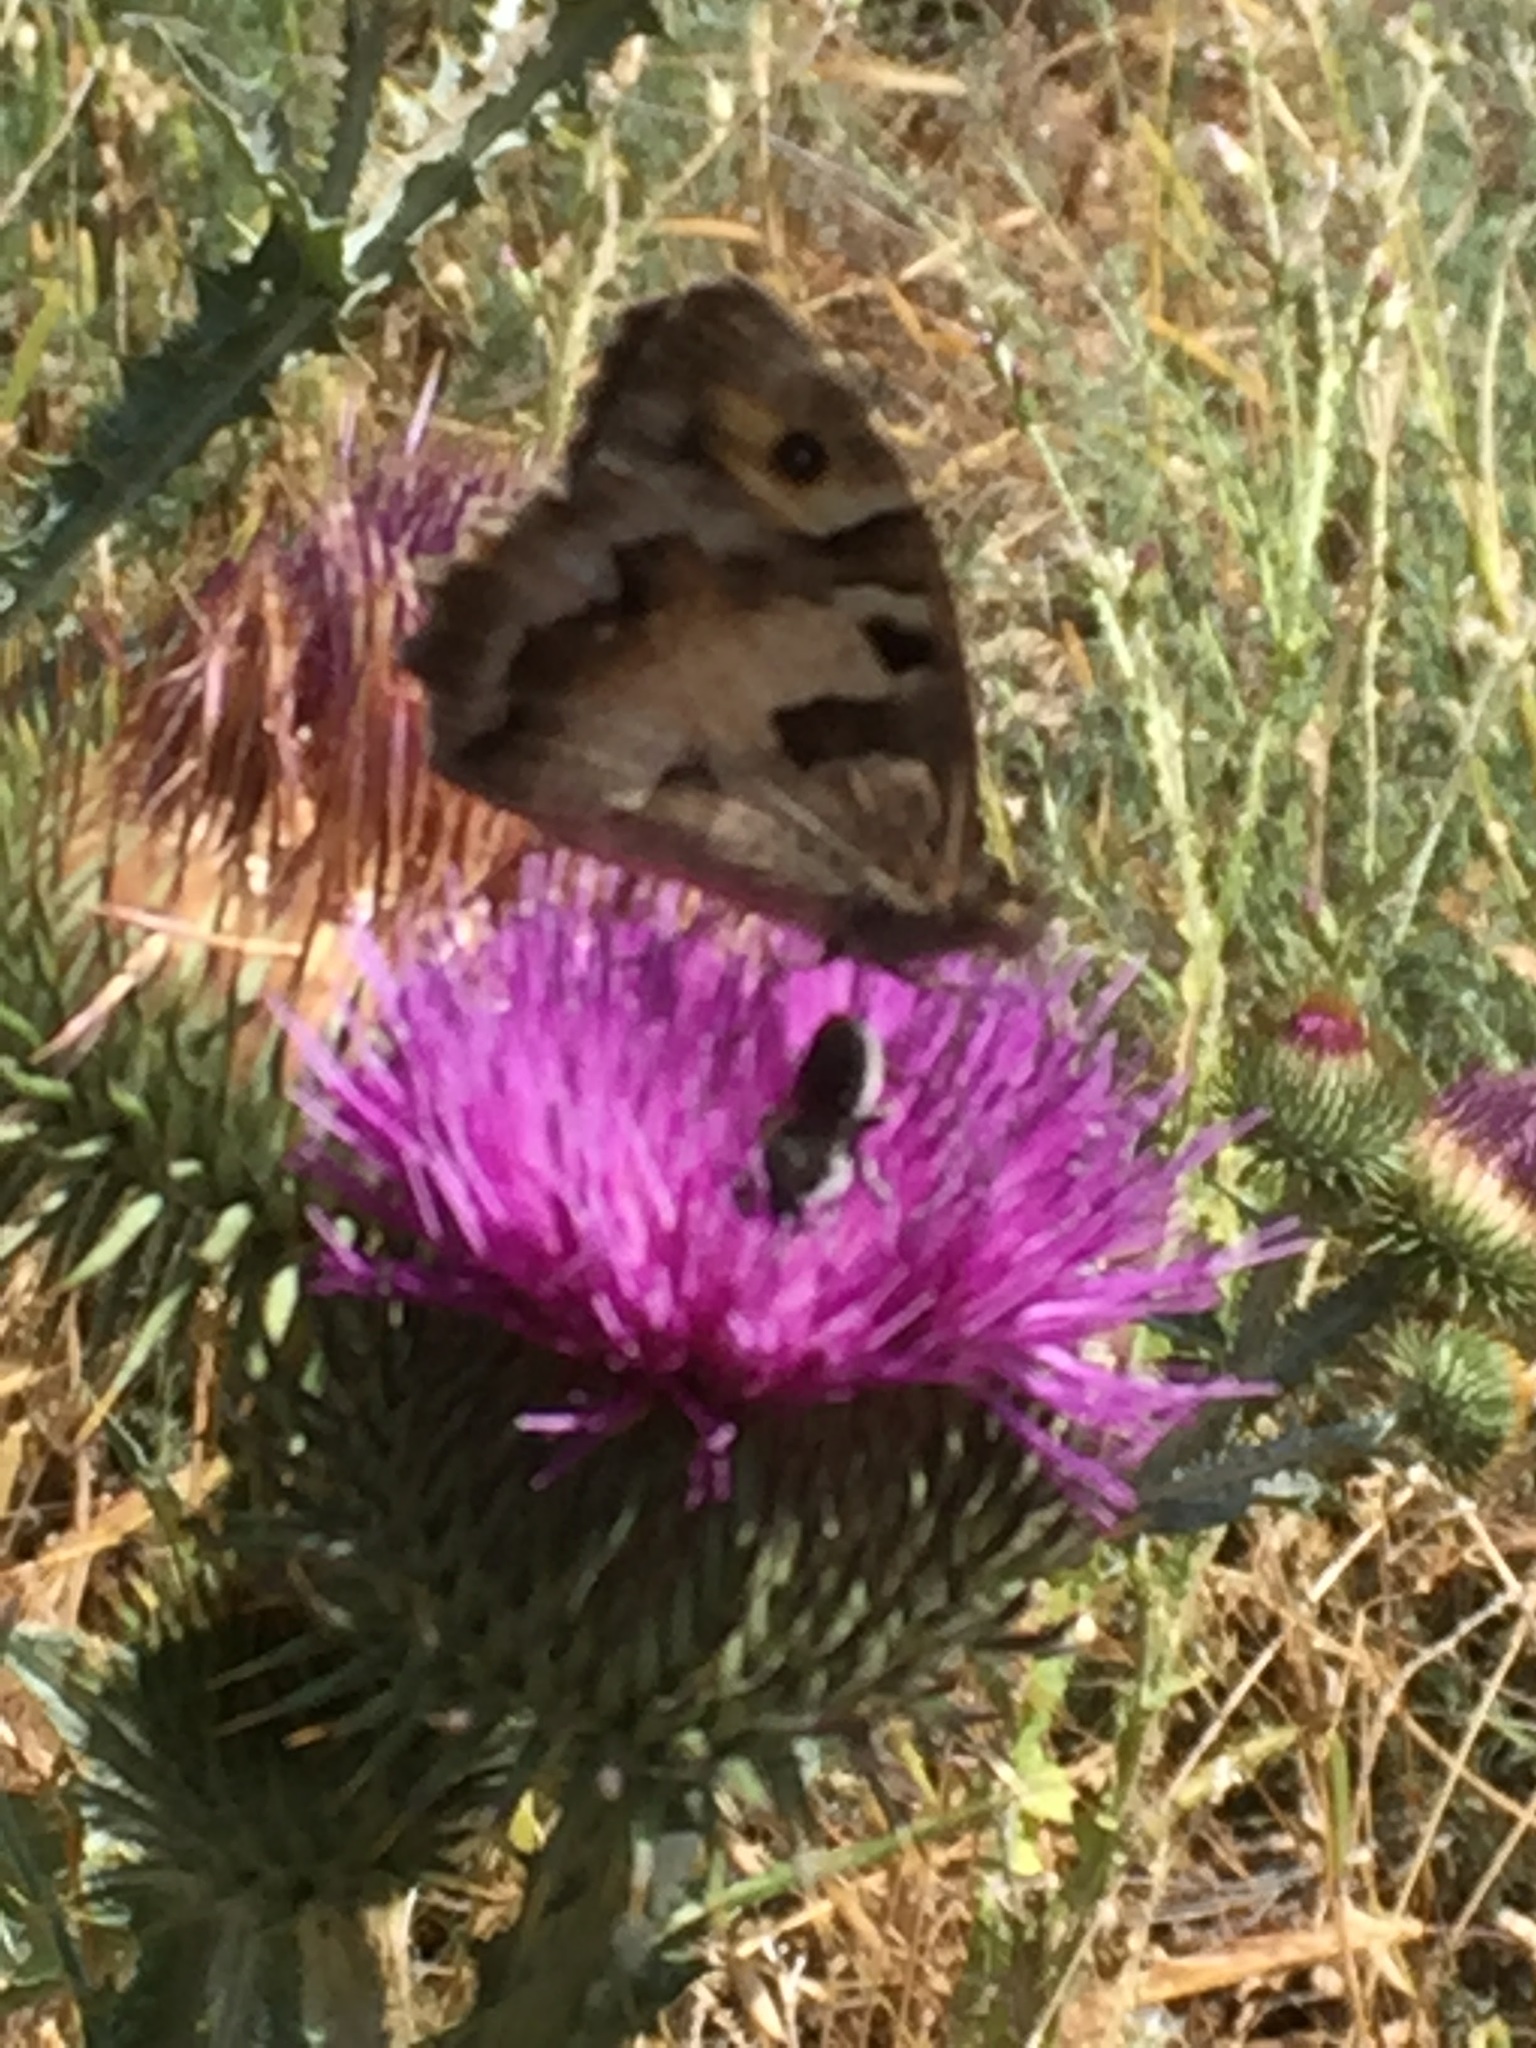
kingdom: Animalia
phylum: Arthropoda
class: Insecta
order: Lepidoptera
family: Nymphalidae
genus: Satyrus
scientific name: Satyrus briseis
